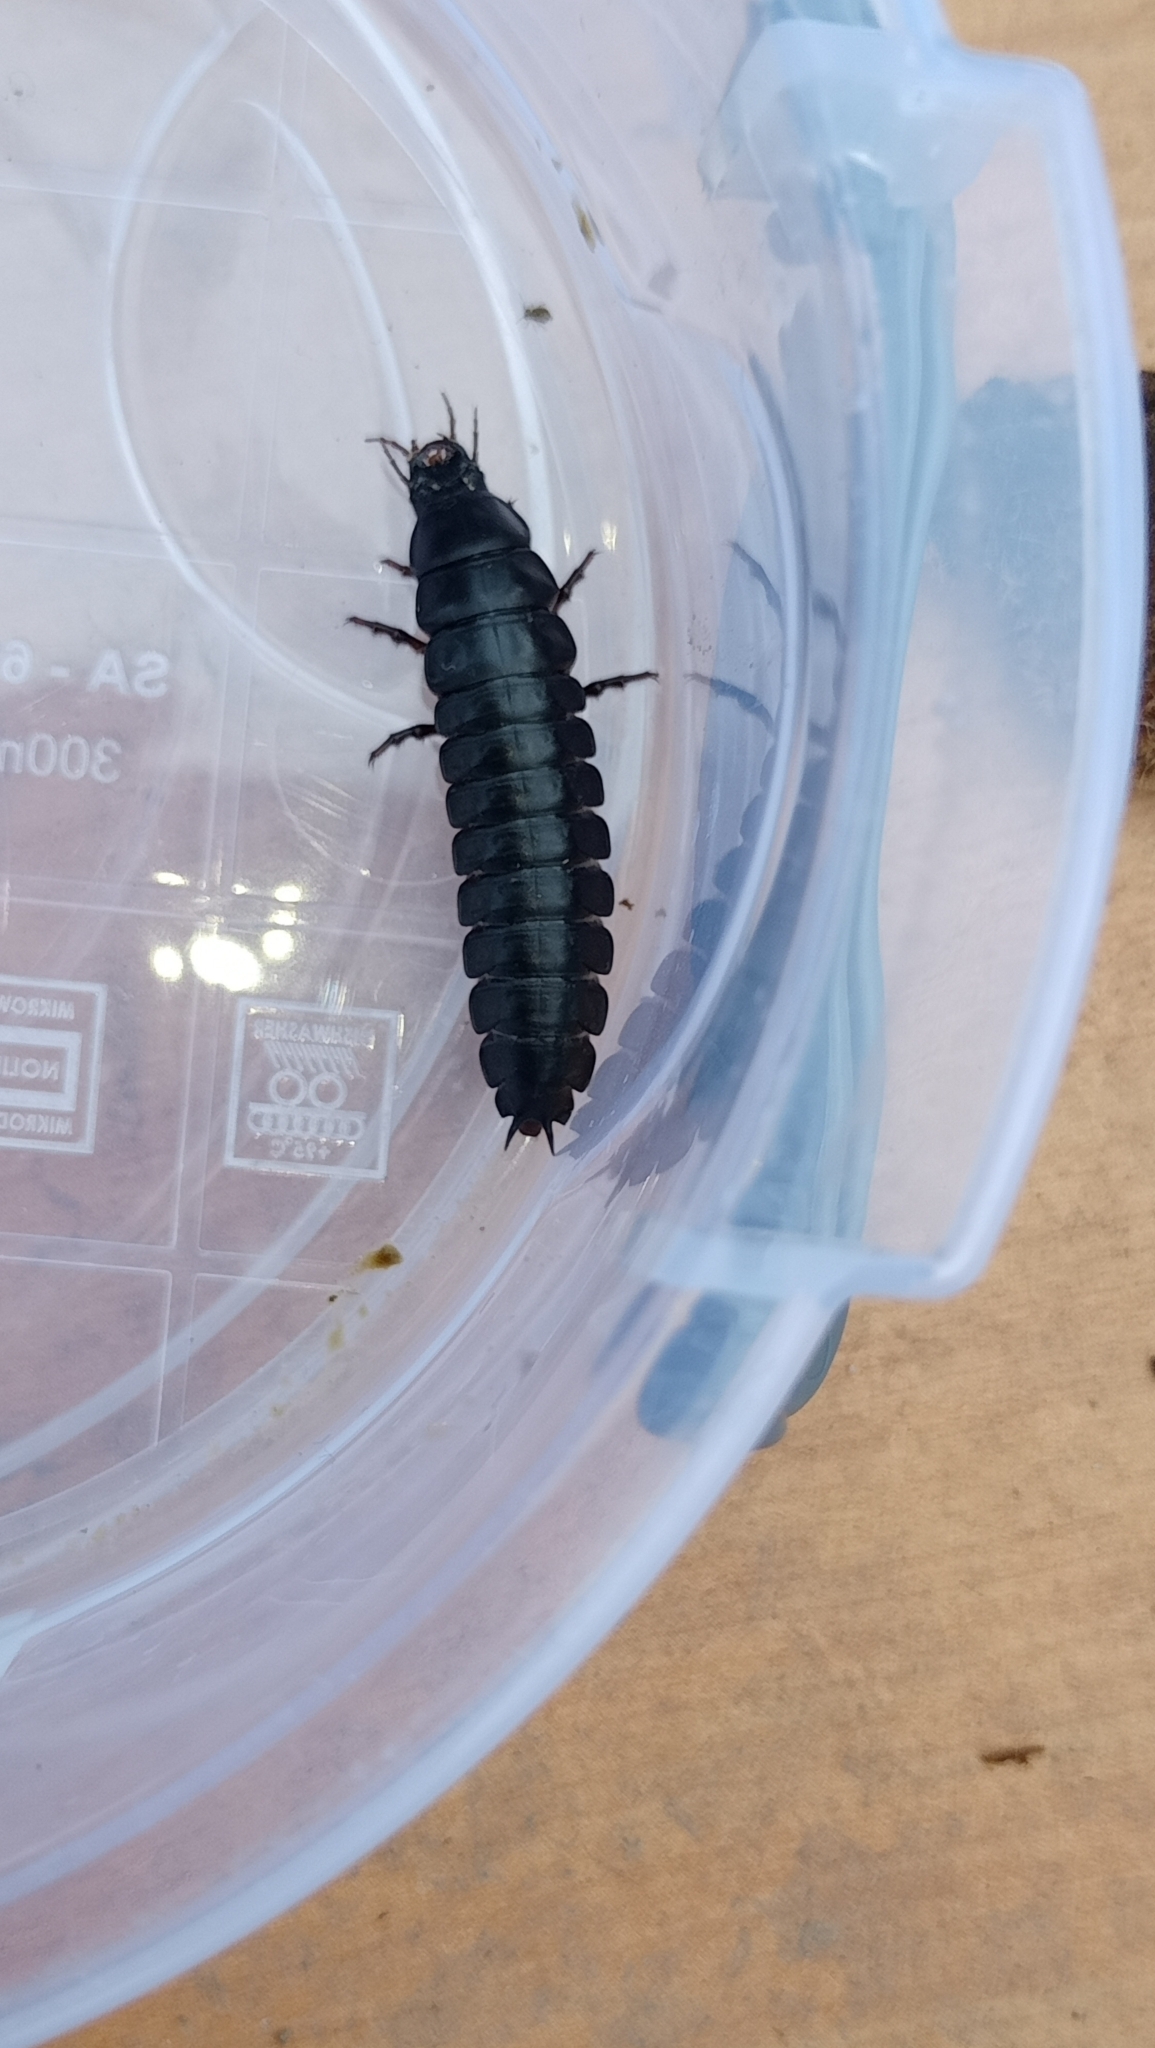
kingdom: Animalia
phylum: Arthropoda
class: Insecta
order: Coleoptera
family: Carabidae
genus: Carabus
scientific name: Carabus
